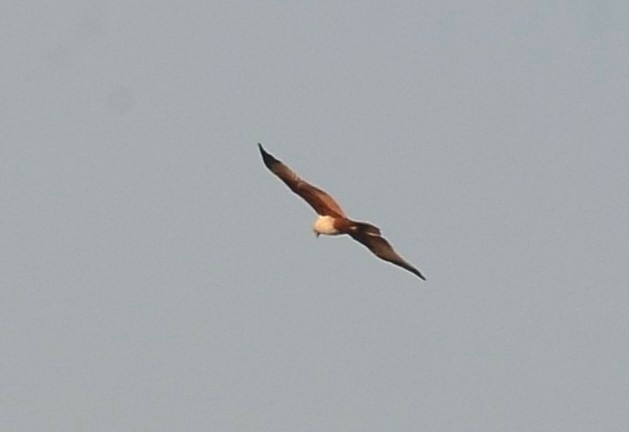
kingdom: Animalia
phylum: Chordata
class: Aves
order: Accipitriformes
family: Accipitridae
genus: Haliastur
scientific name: Haliastur indus
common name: Brahminy kite
